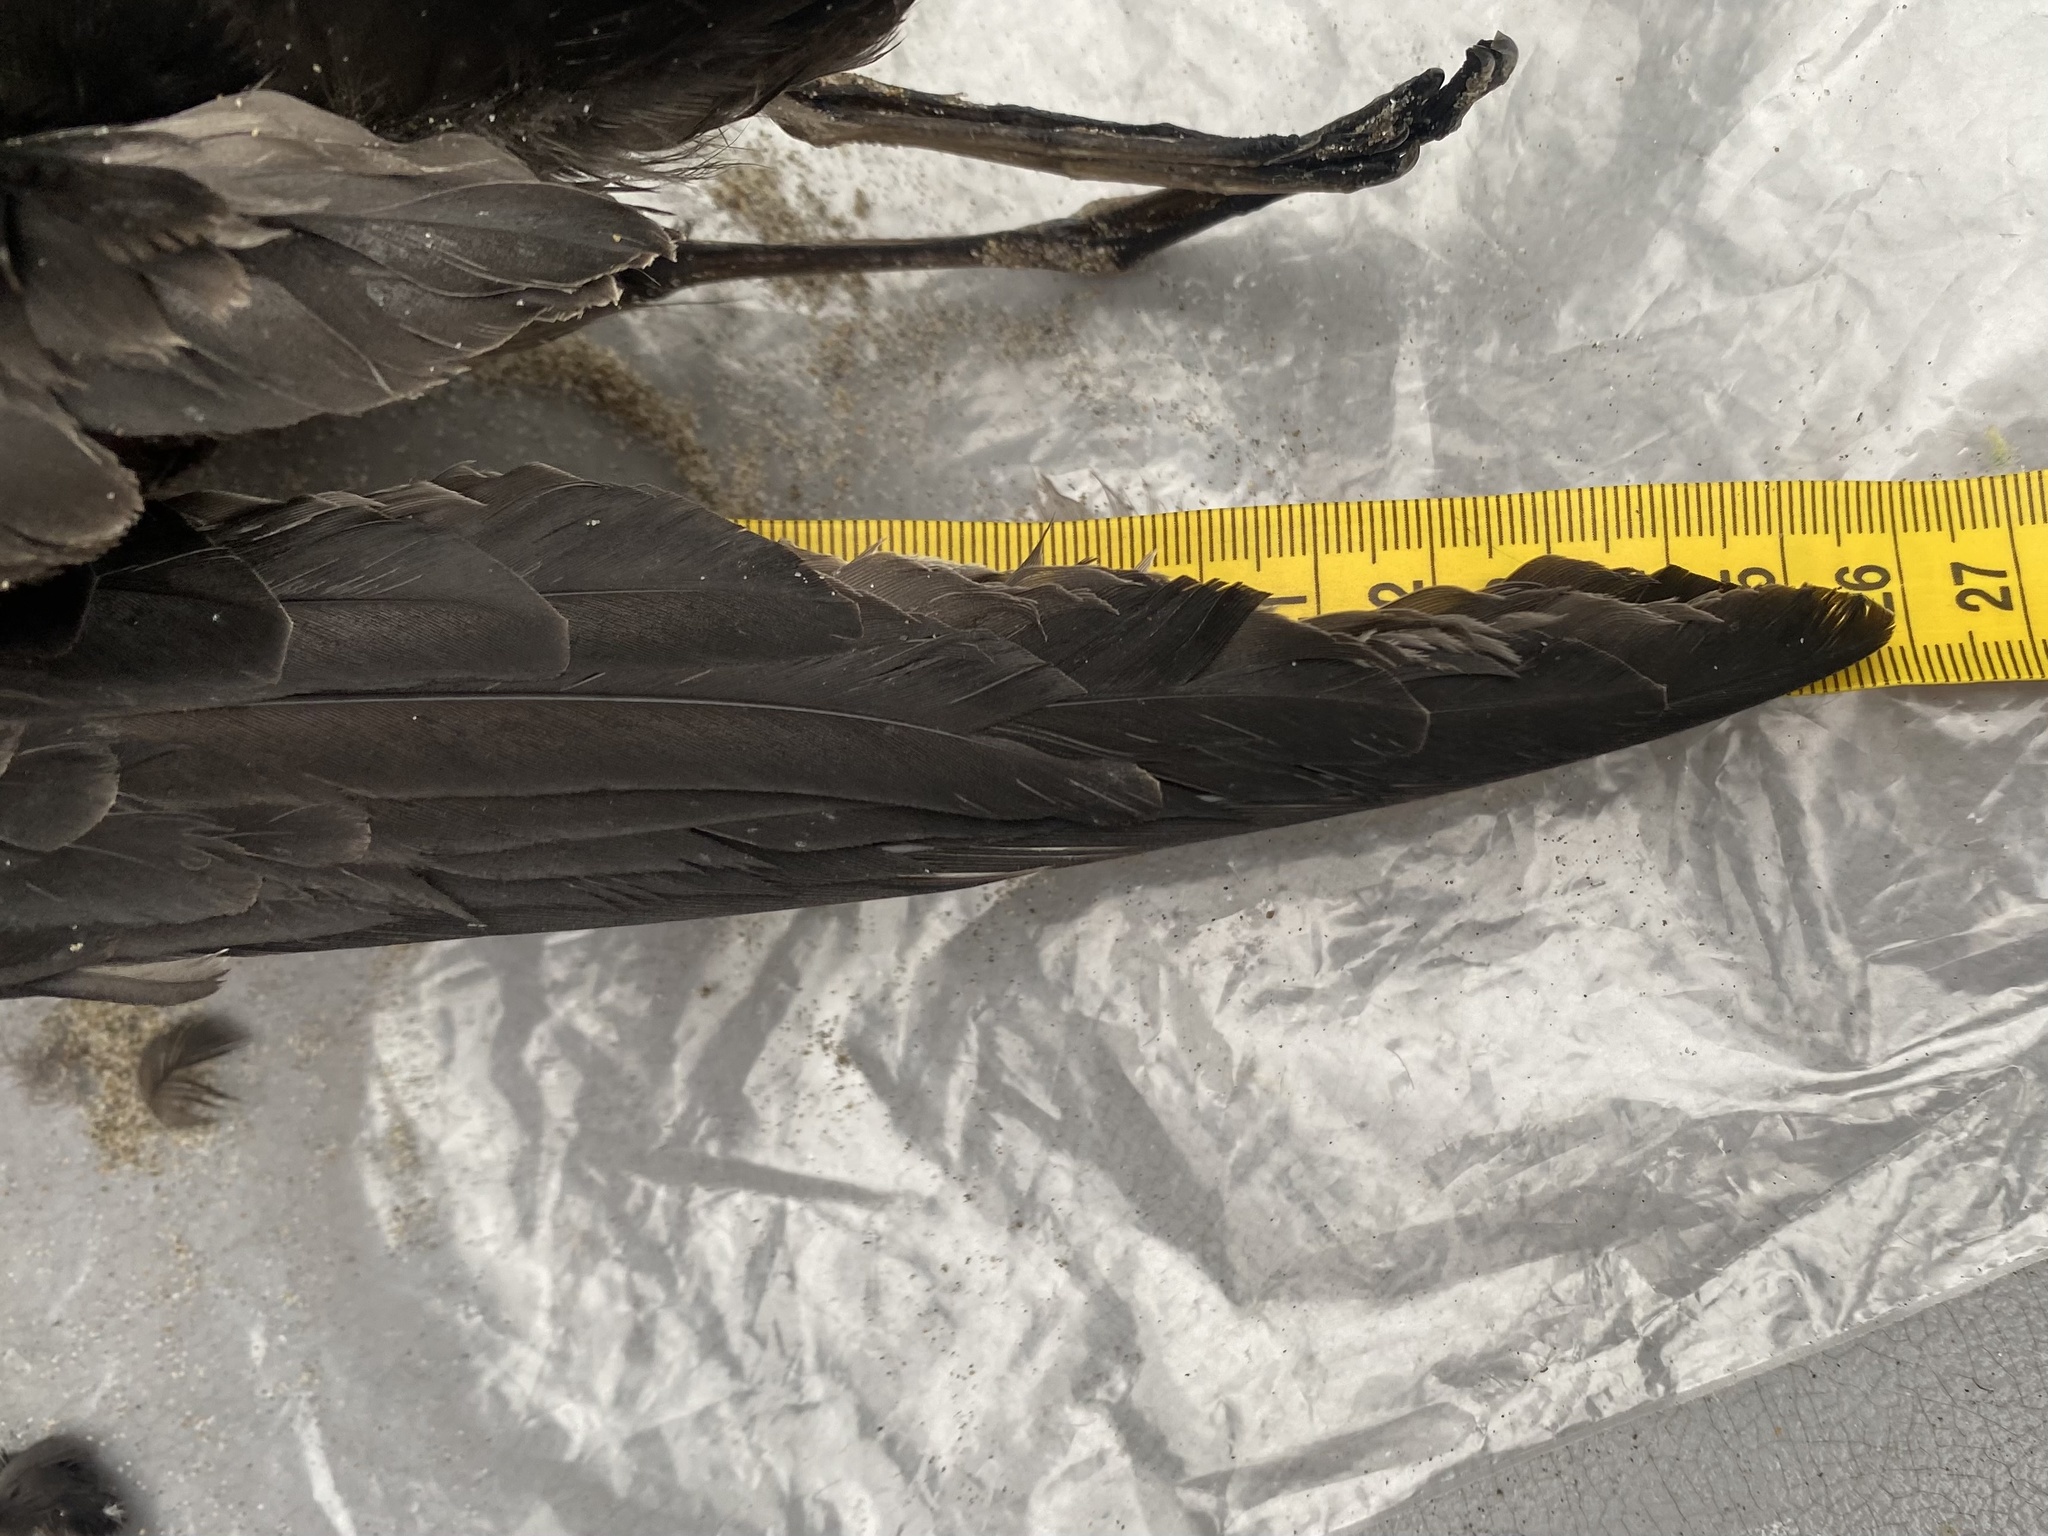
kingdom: Animalia
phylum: Chordata
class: Aves
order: Procellariiformes
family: Procellariidae
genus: Puffinus
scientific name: Puffinus tenuirostris
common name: Short-tailed shearwater
